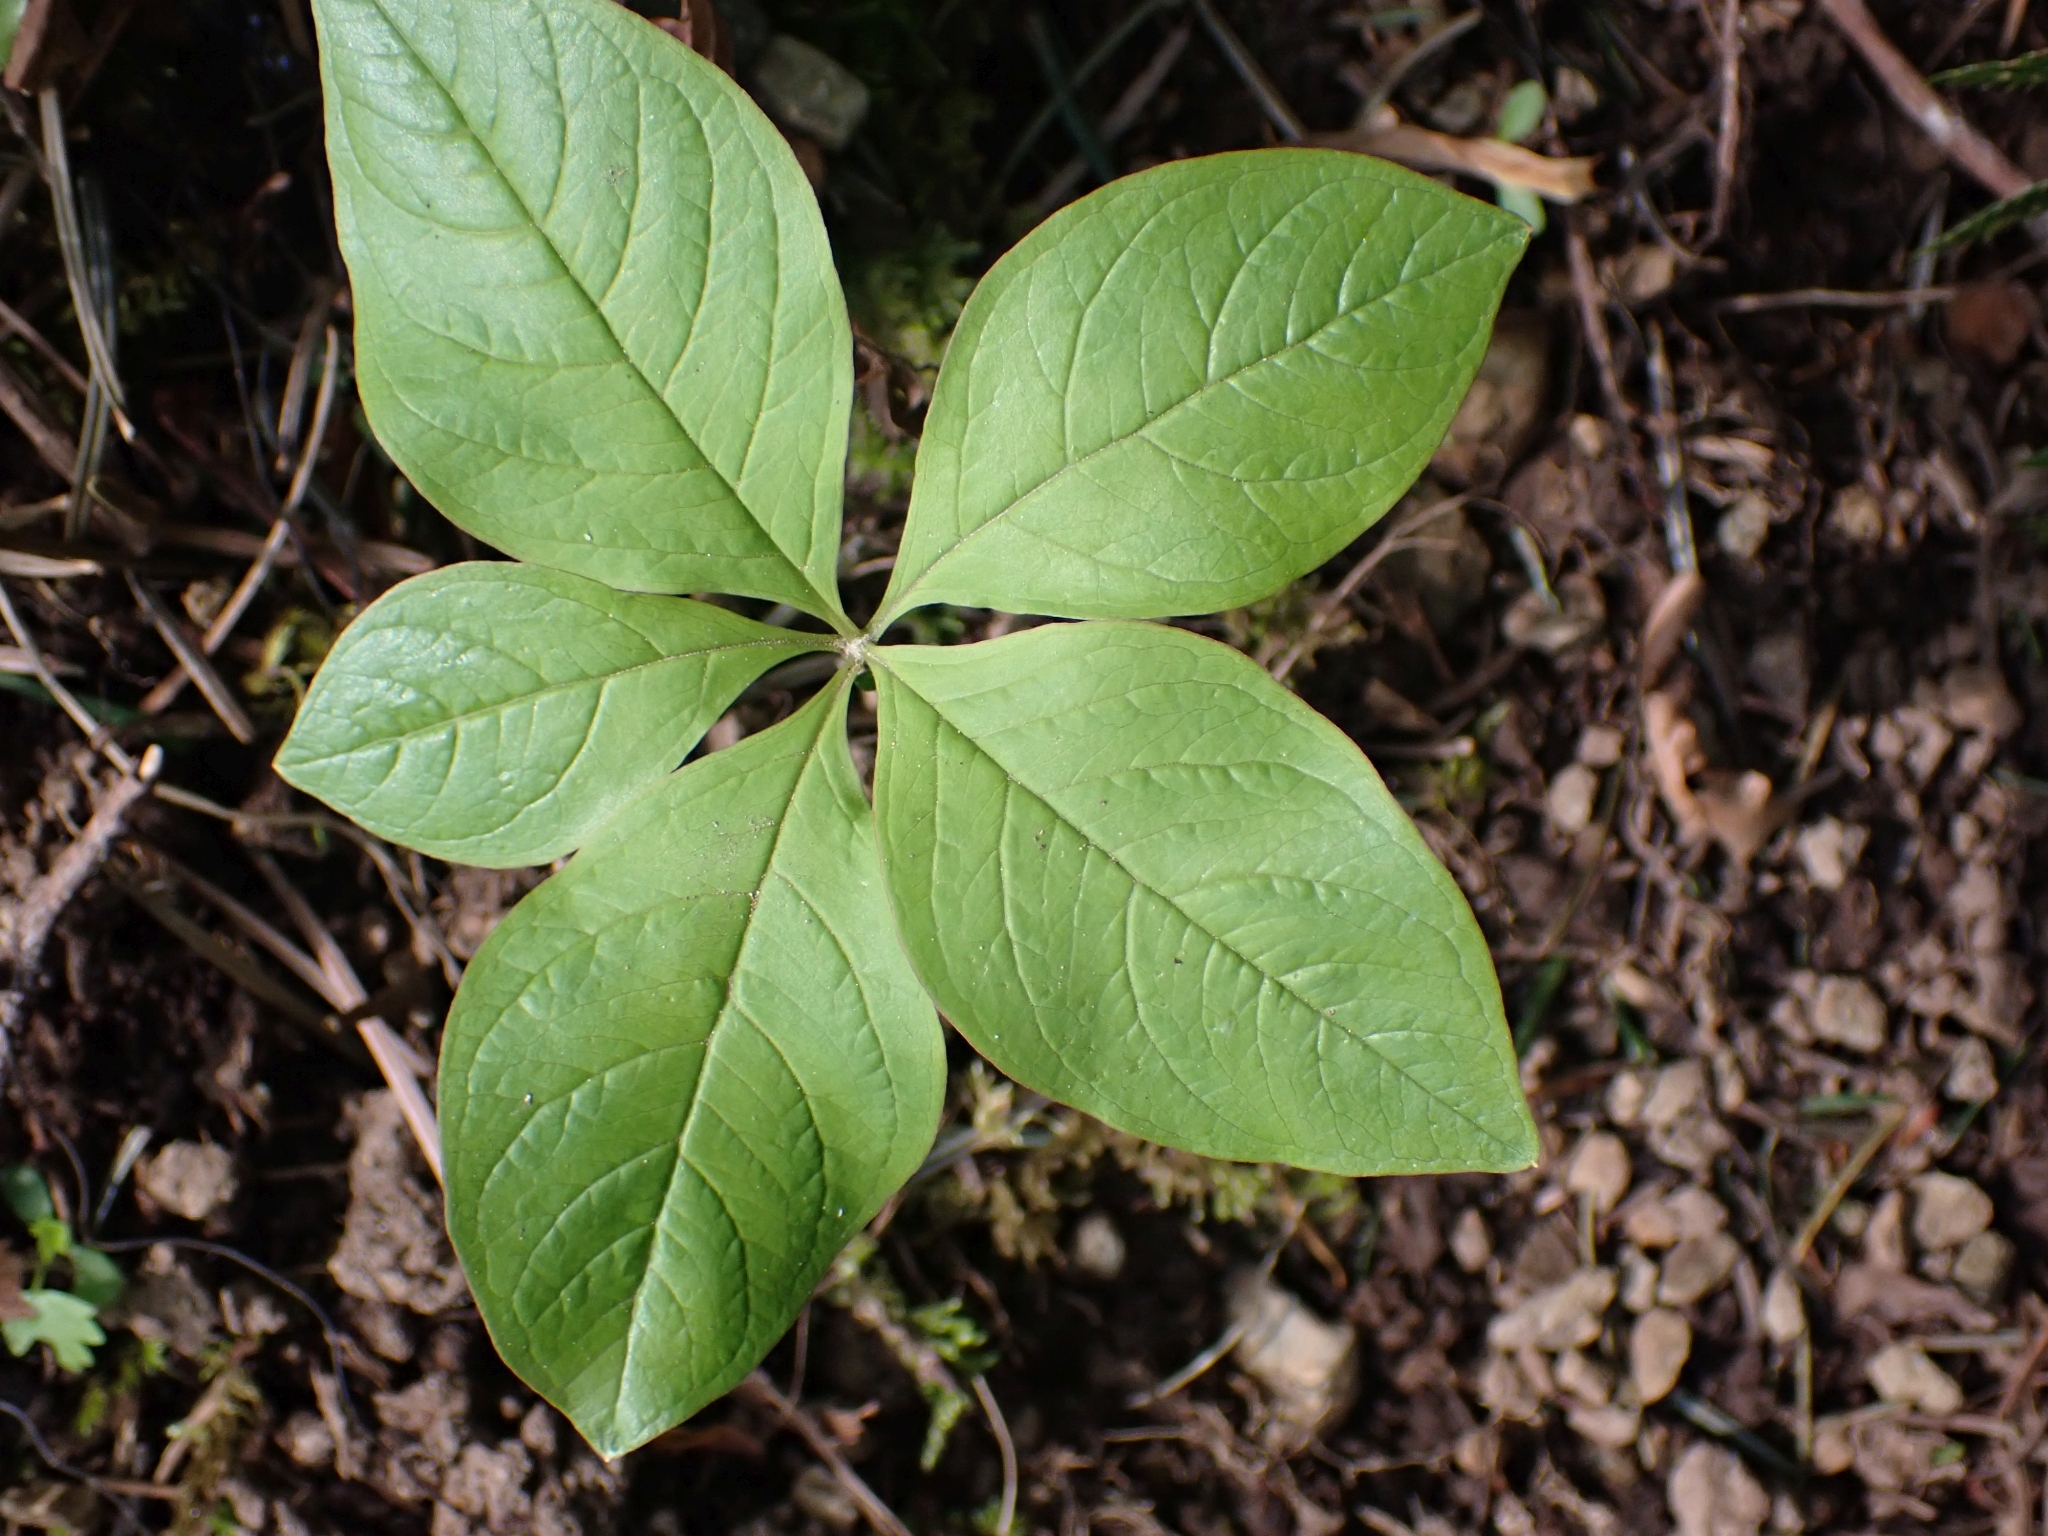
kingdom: Plantae
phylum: Tracheophyta
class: Magnoliopsida
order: Ericales
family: Primulaceae
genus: Lysimachia
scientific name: Lysimachia latifolia
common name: Pacific starflower
